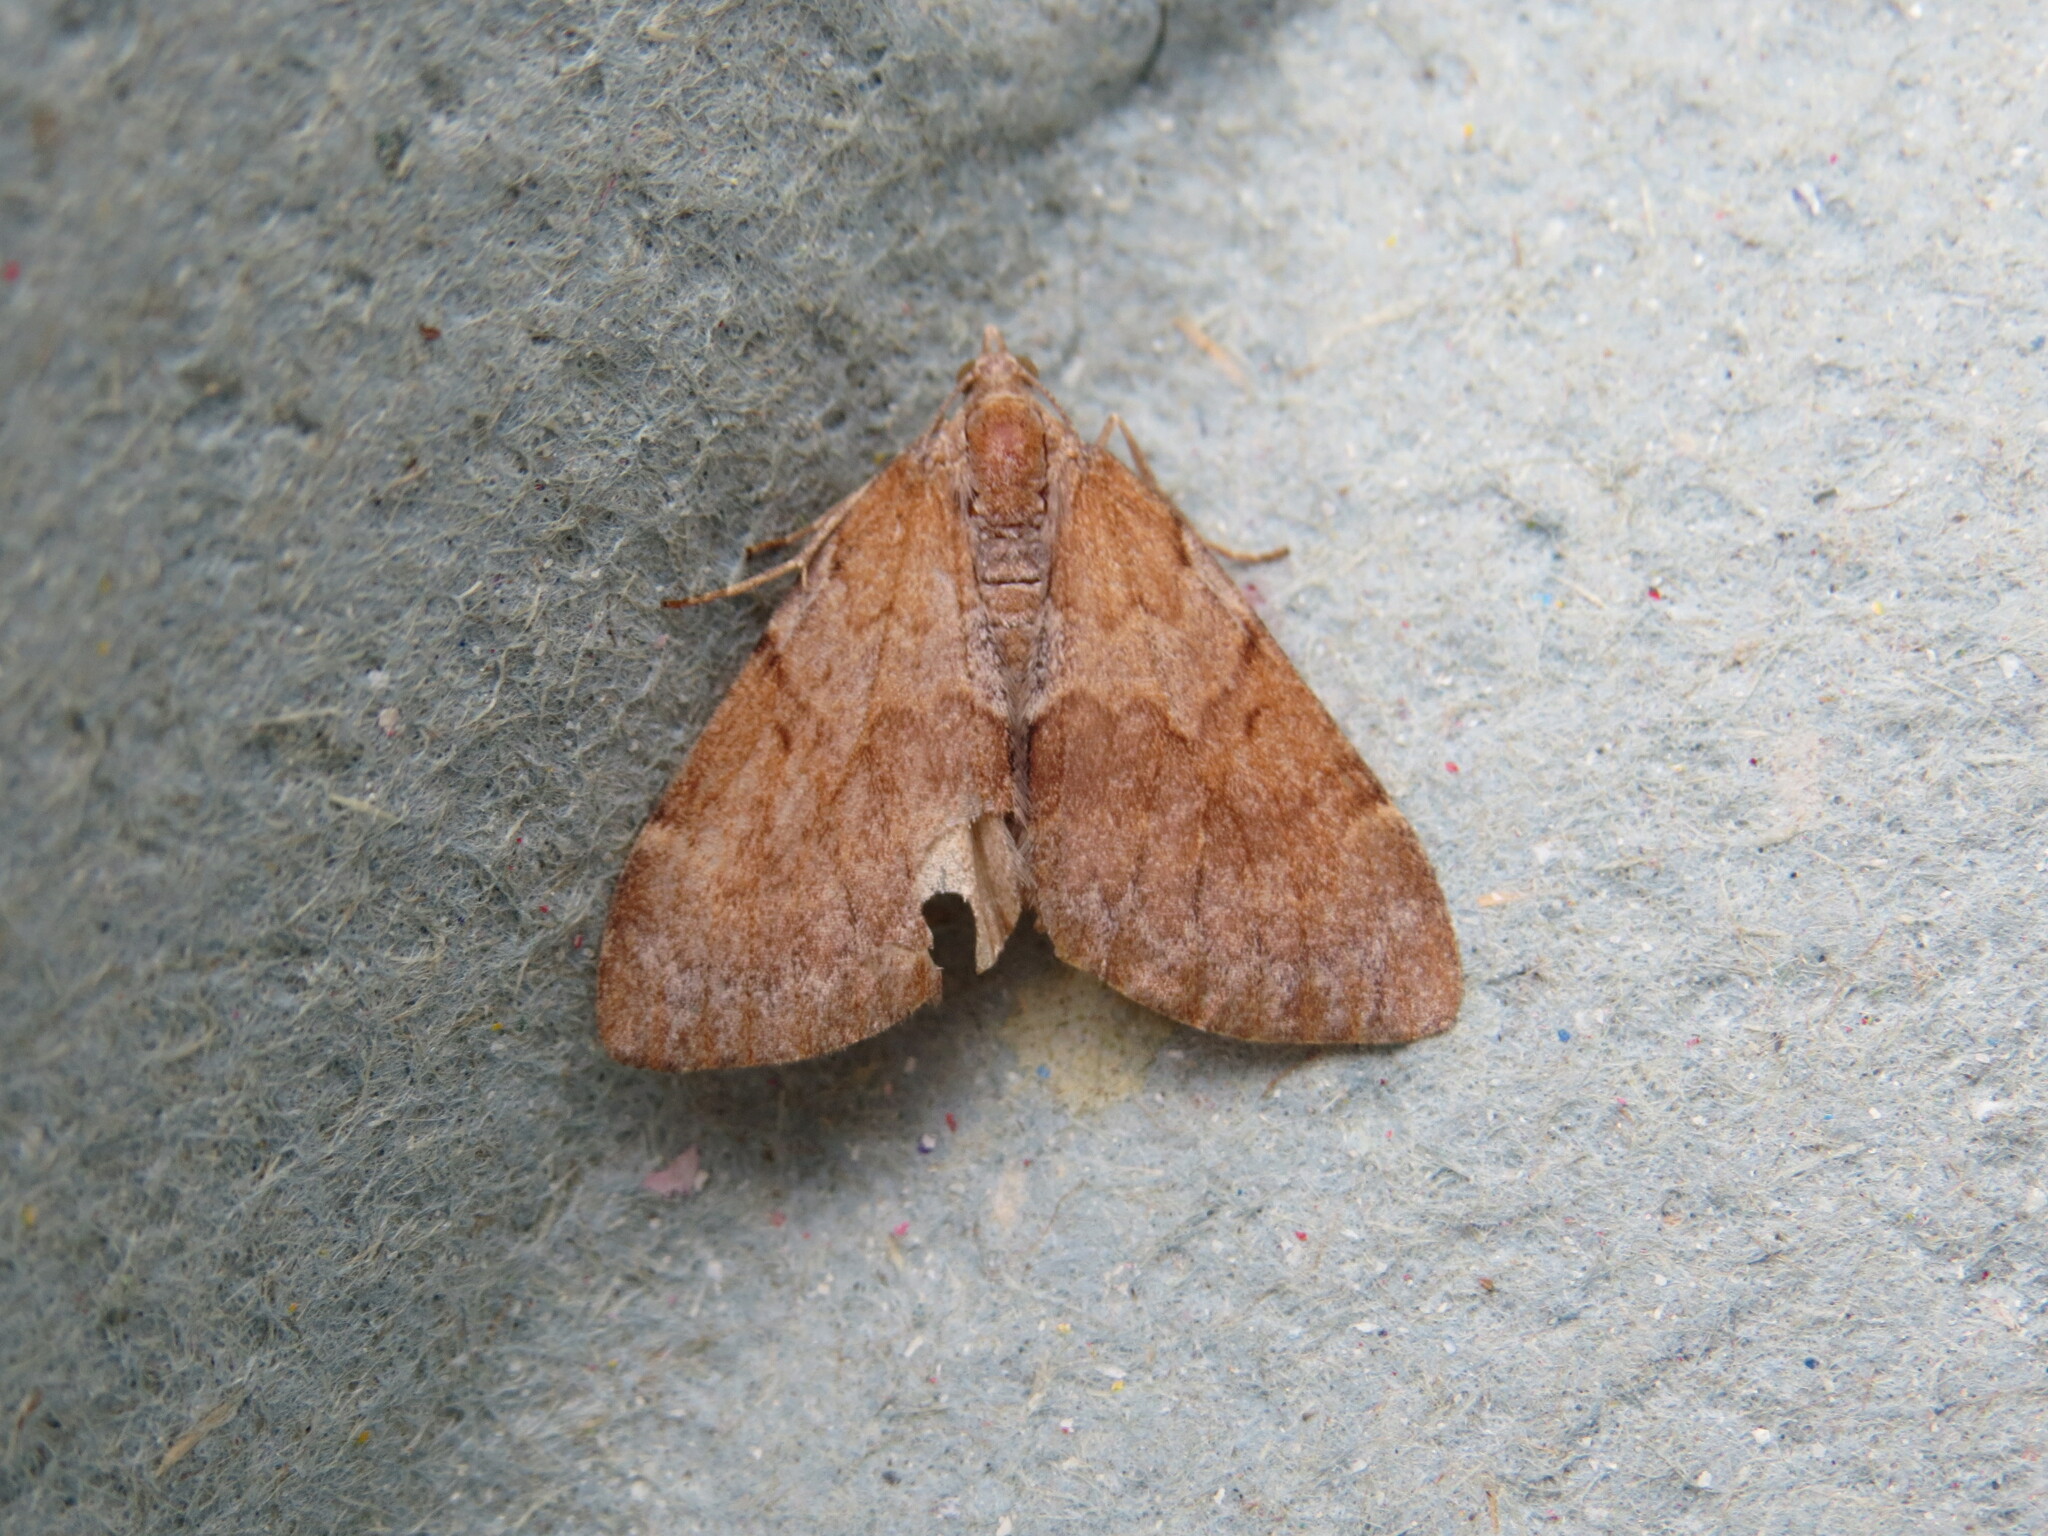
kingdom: Animalia
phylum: Arthropoda
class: Insecta
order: Lepidoptera
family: Geometridae
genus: Pennithera
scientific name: Pennithera firmata
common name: Pine carpet
